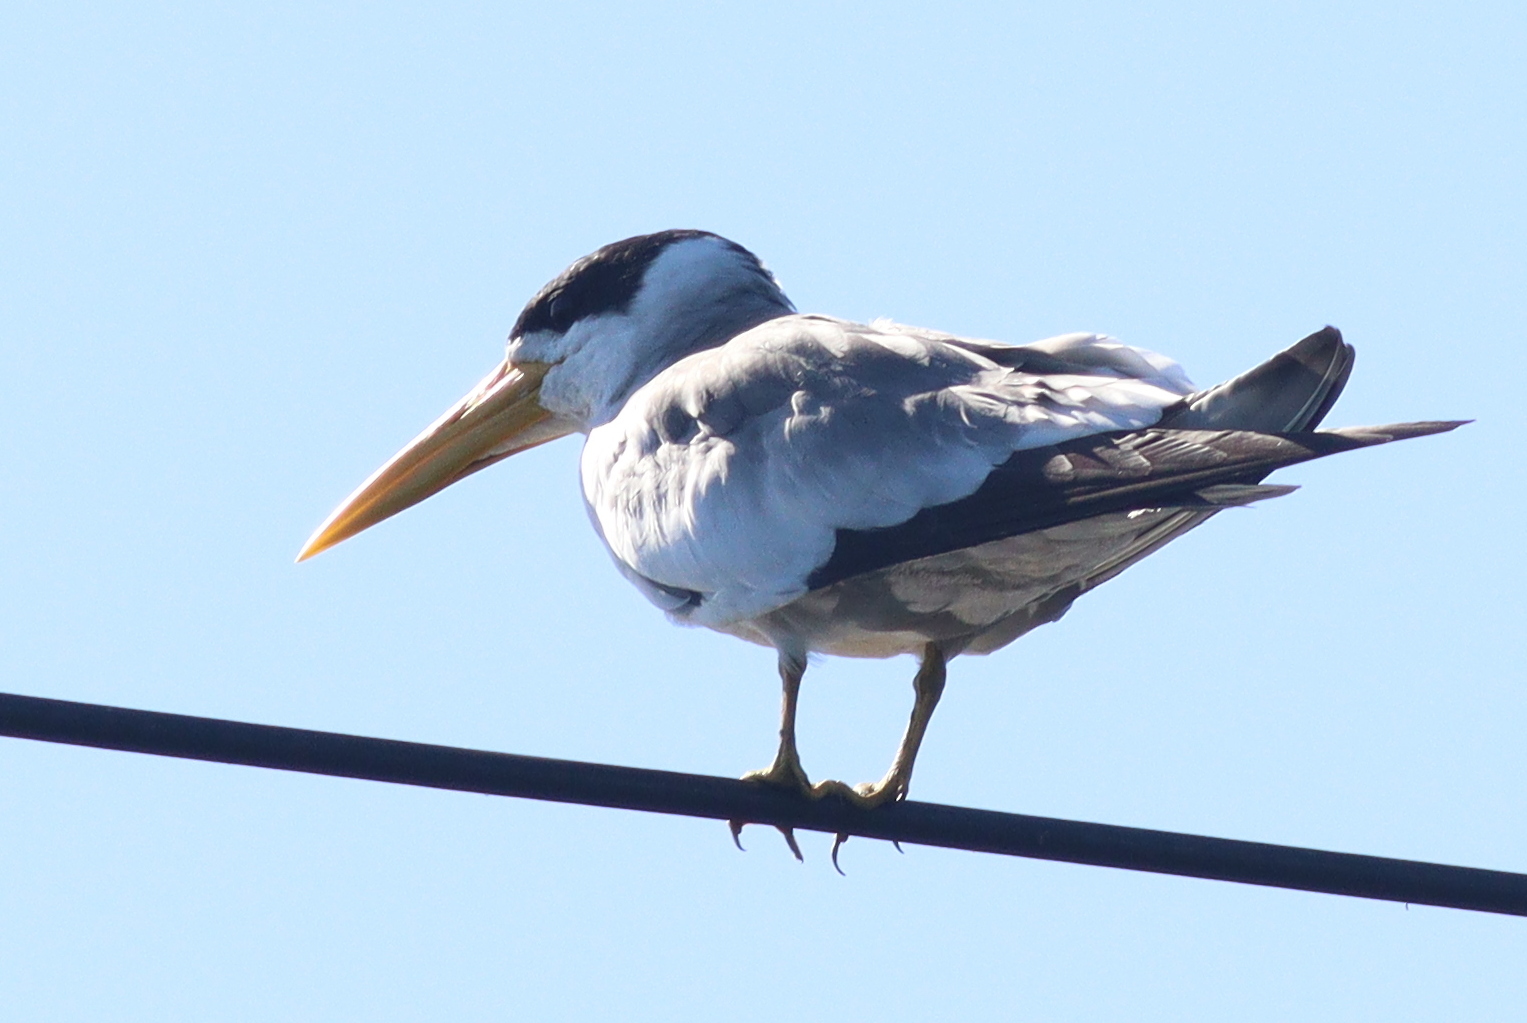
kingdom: Animalia
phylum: Chordata
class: Aves
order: Charadriiformes
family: Laridae
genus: Phaetusa
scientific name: Phaetusa simplex
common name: Large-billed tern
